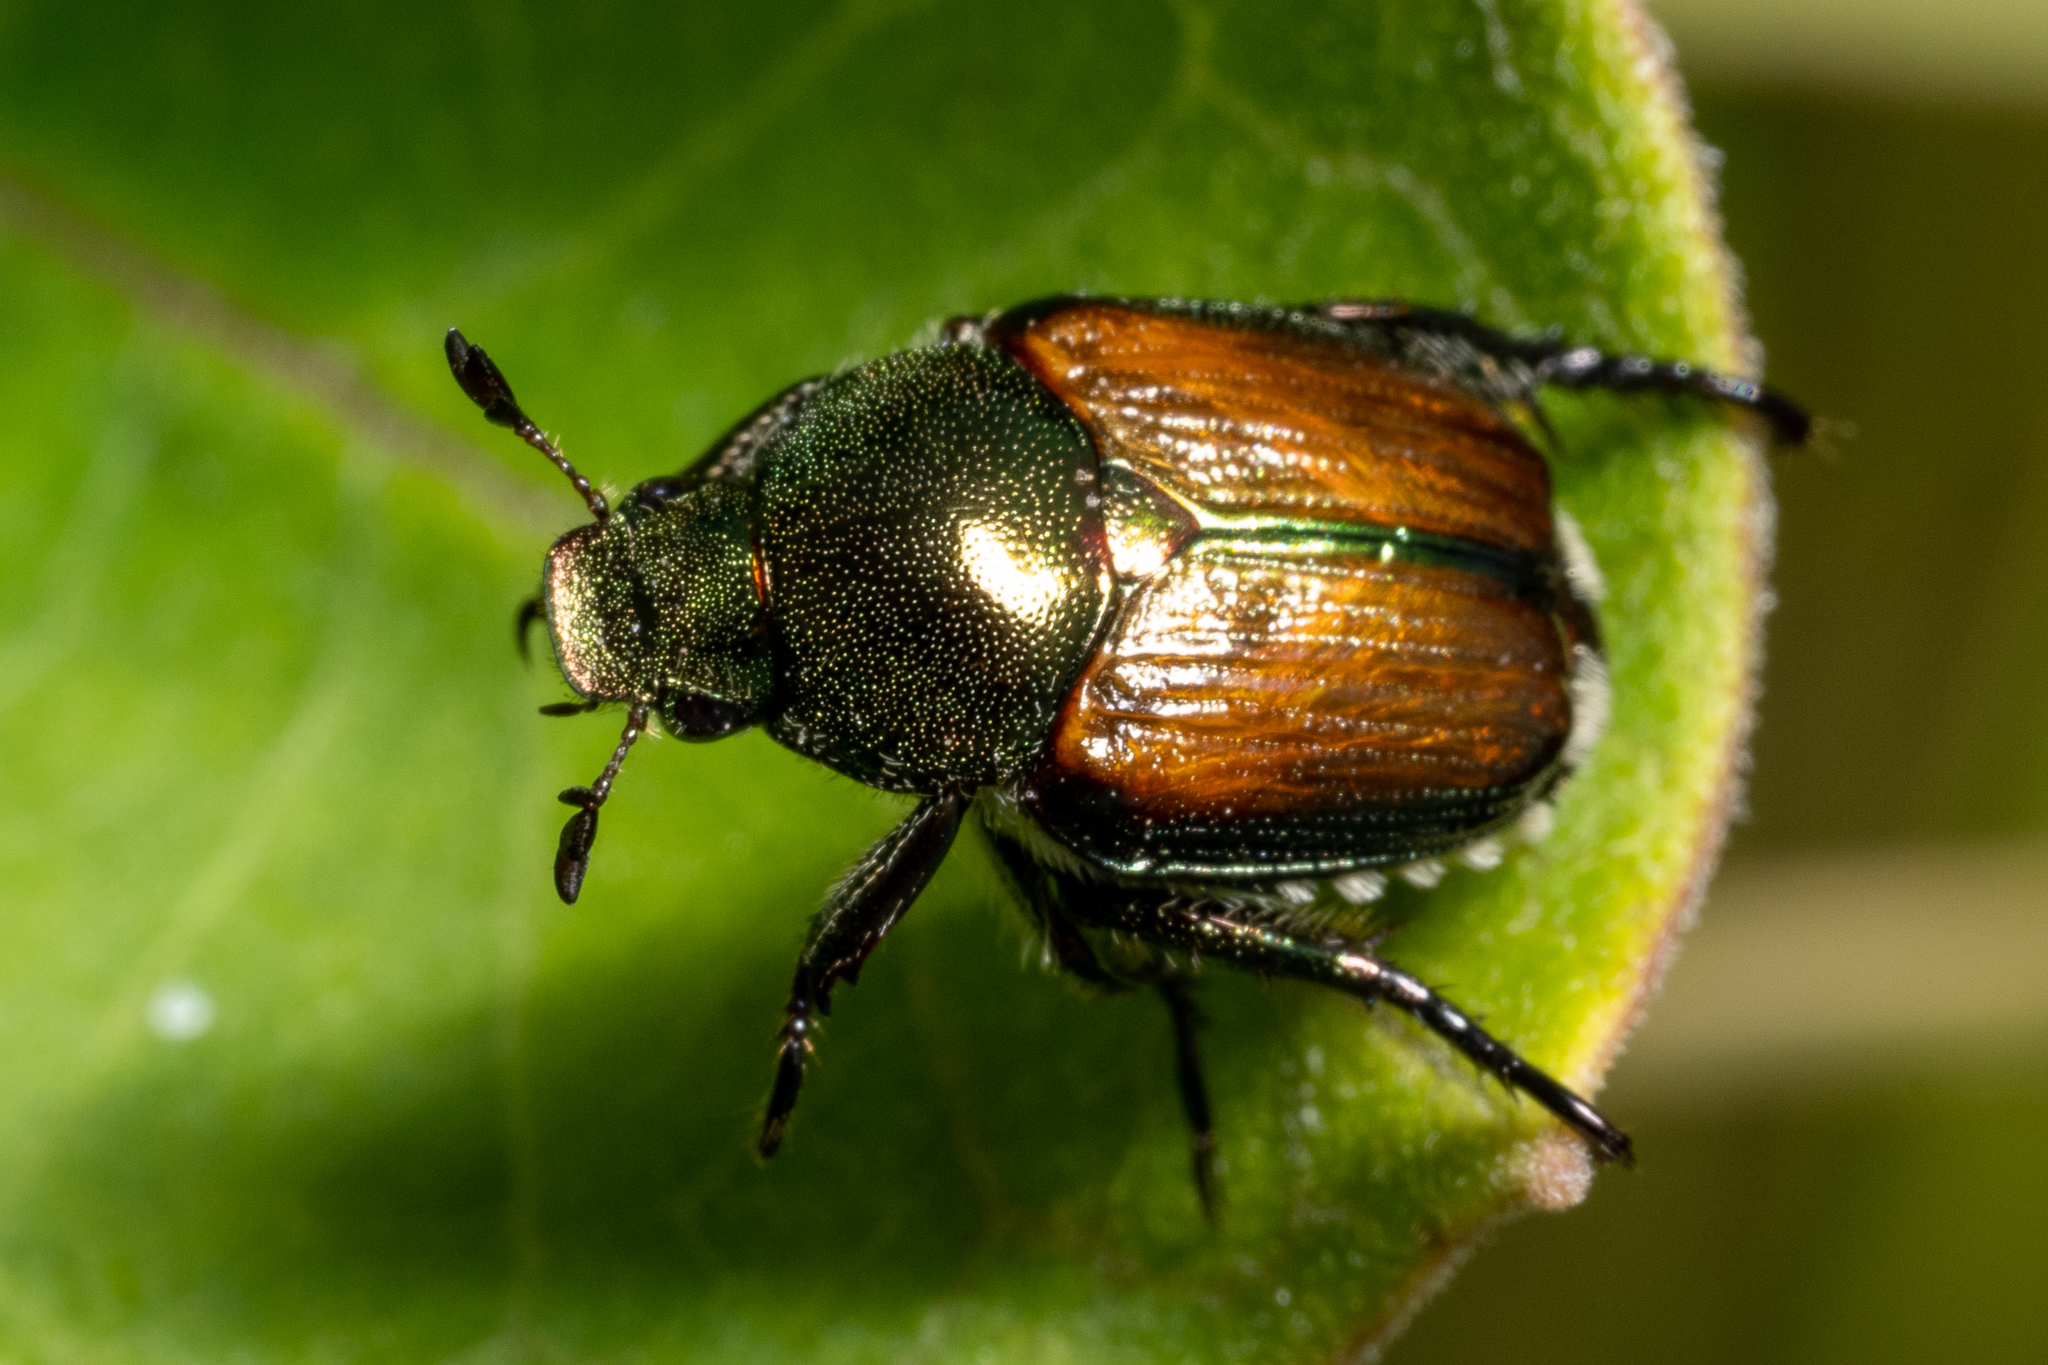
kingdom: Animalia
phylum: Arthropoda
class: Insecta
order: Coleoptera
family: Scarabaeidae
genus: Popillia
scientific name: Popillia japonica
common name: Japanese beetle
